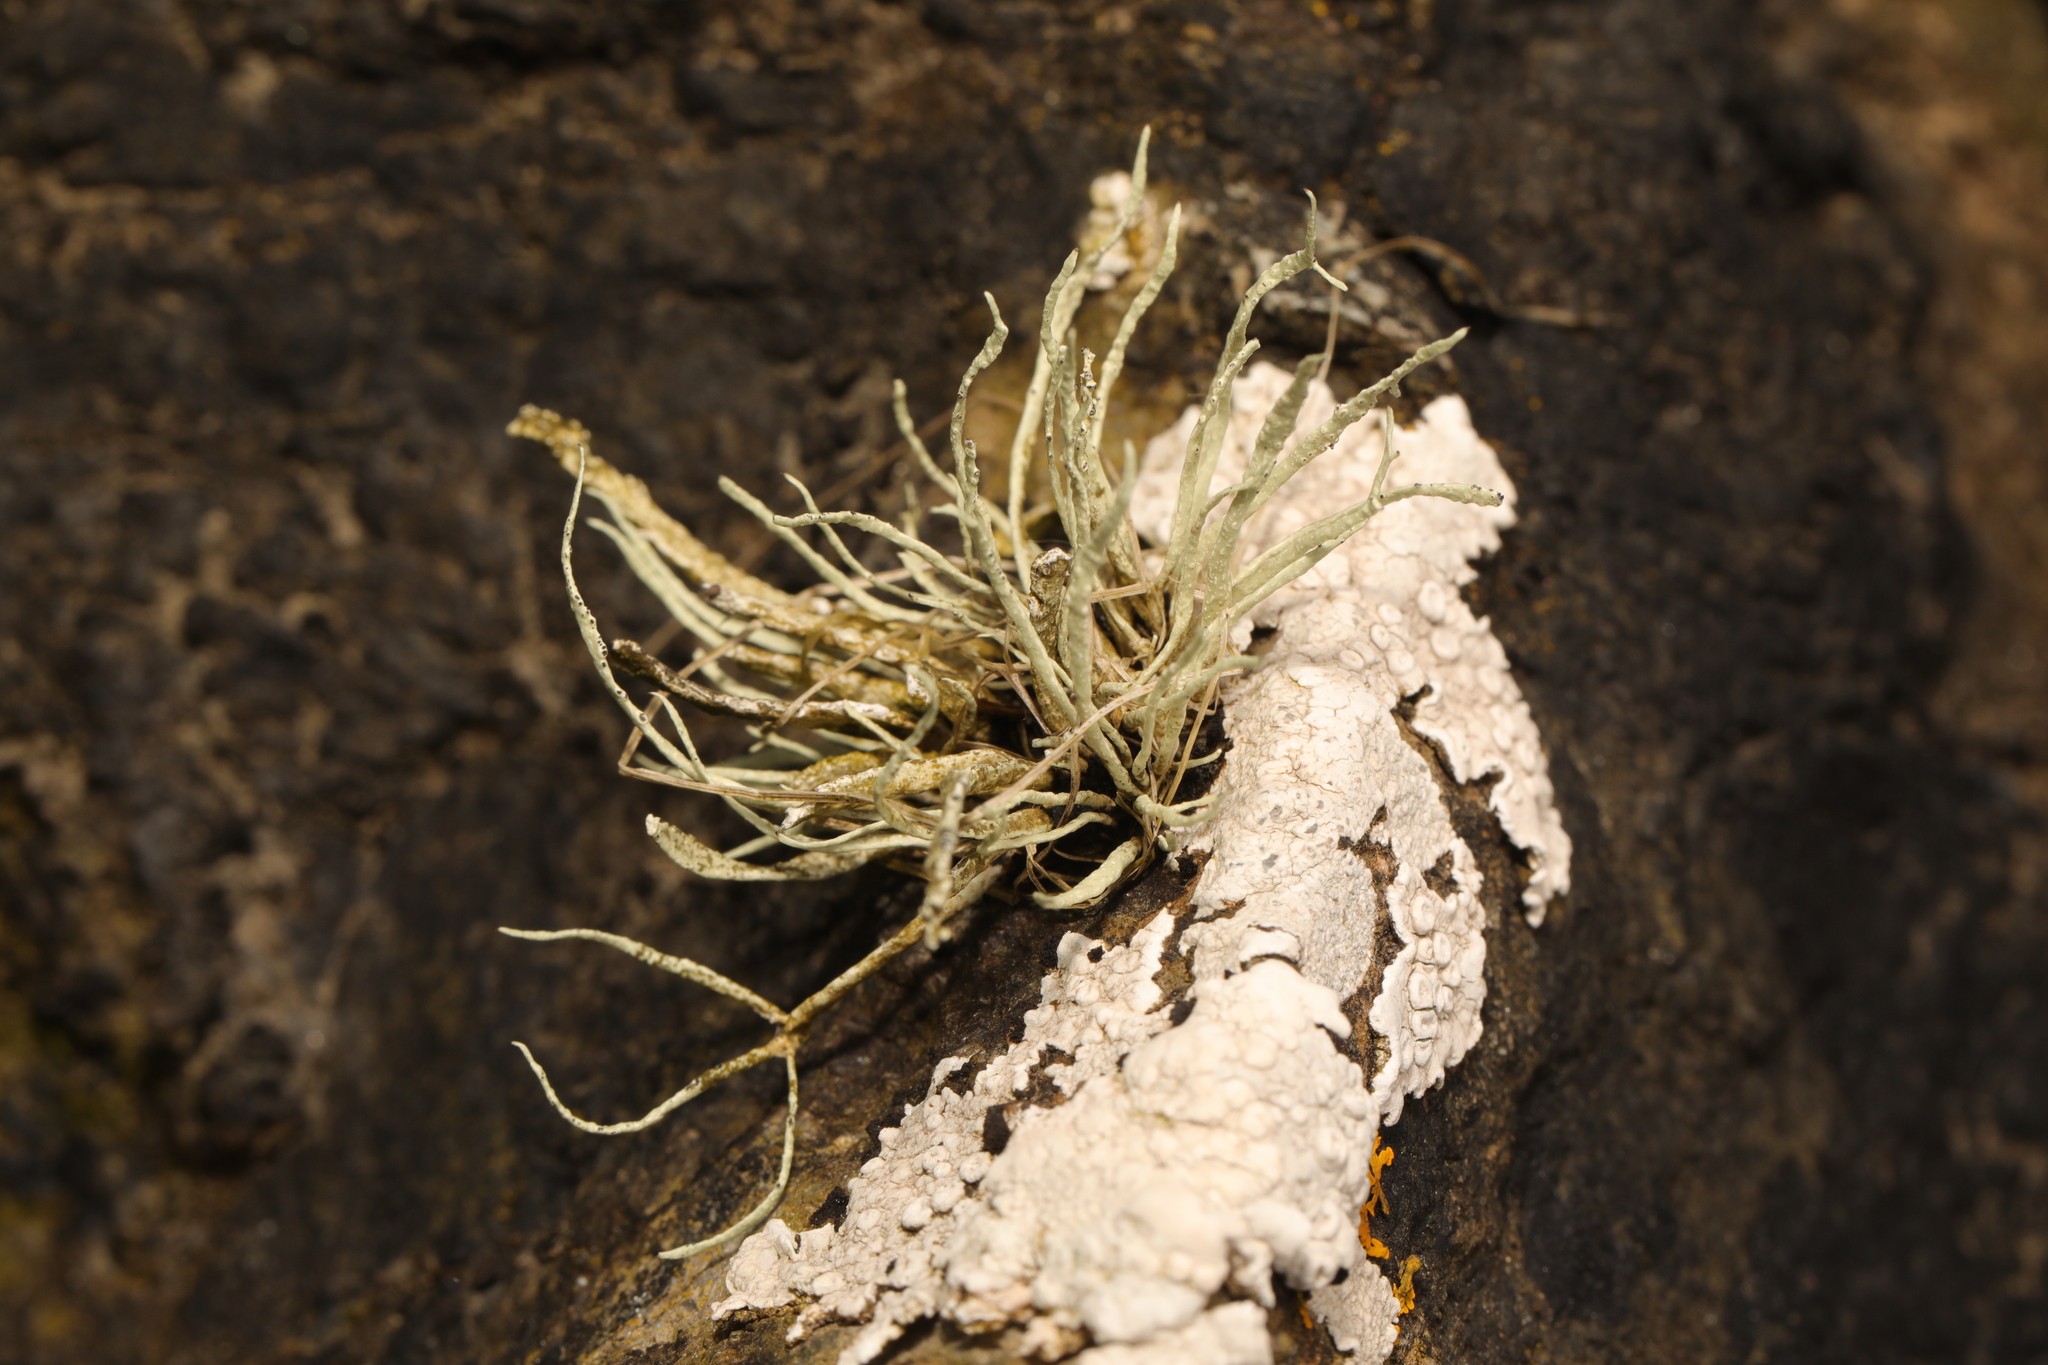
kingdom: Fungi
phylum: Ascomycota
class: Lecanoromycetes
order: Lecanorales
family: Ramalinaceae
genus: Ramalina
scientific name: Ramalina cuspidata
